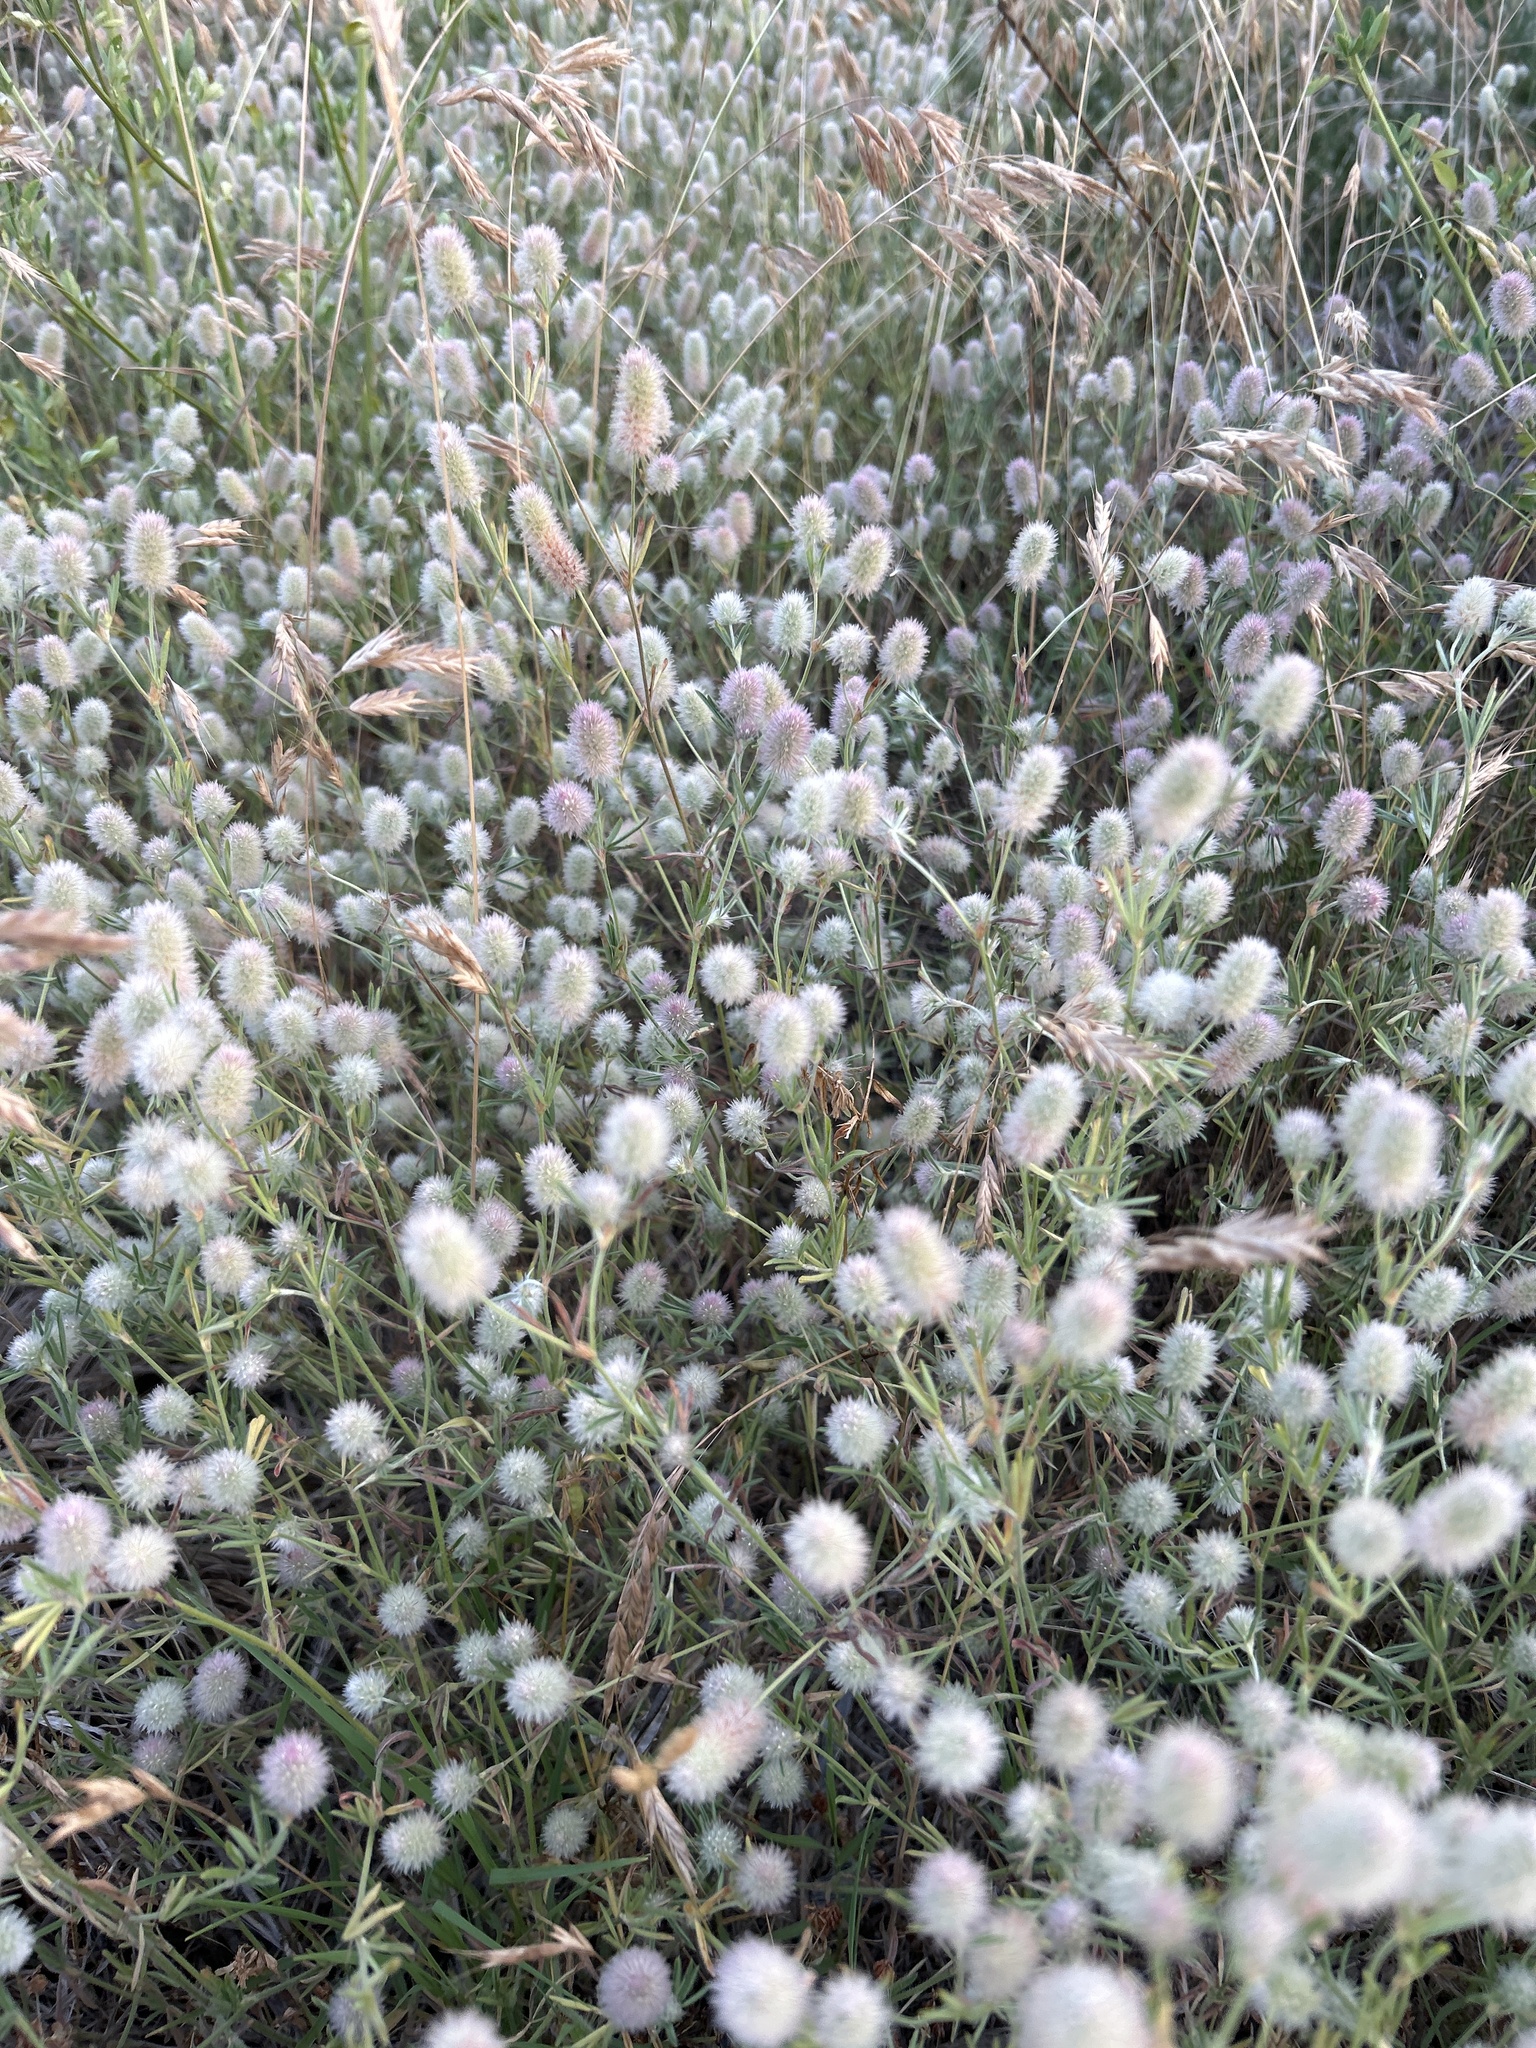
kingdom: Plantae
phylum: Tracheophyta
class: Magnoliopsida
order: Fabales
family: Fabaceae
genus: Trifolium
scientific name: Trifolium arvense
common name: Hare's-foot clover
